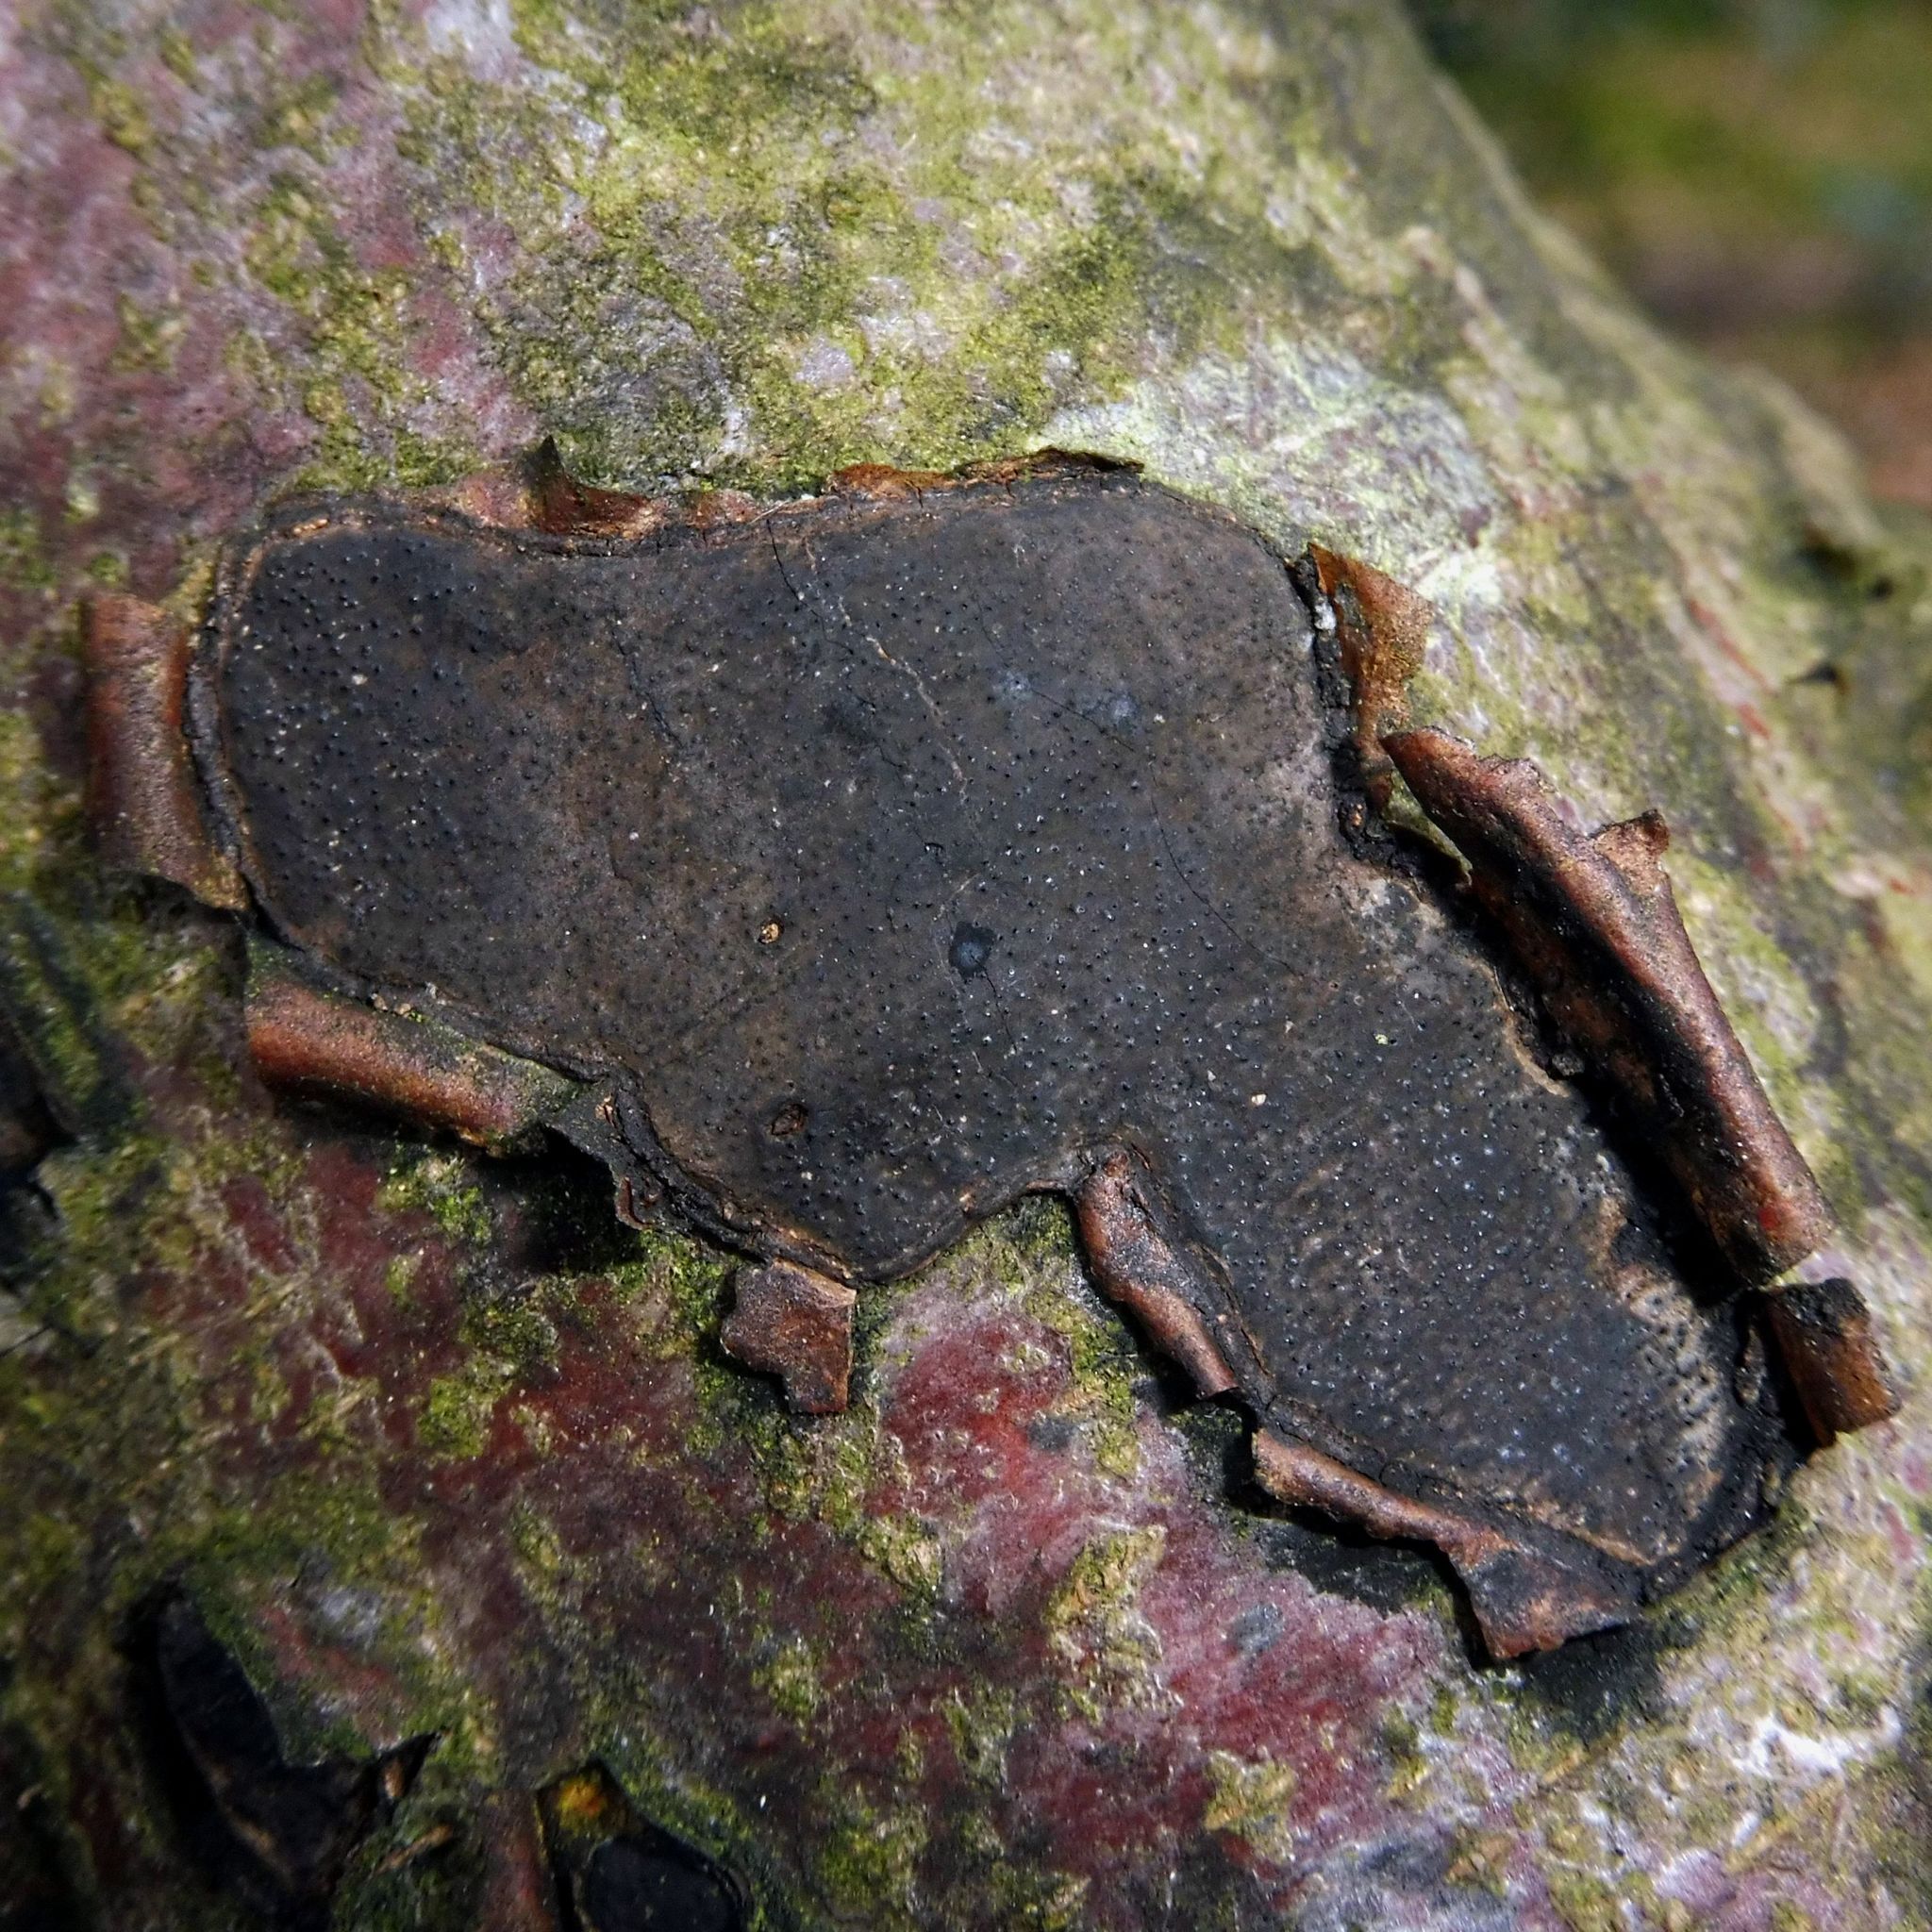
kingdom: Fungi
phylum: Ascomycota
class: Sordariomycetes
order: Xylariales
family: Graphostromataceae
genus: Biscogniauxia
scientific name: Biscogniauxia nummularia
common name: Beech tarcrust
